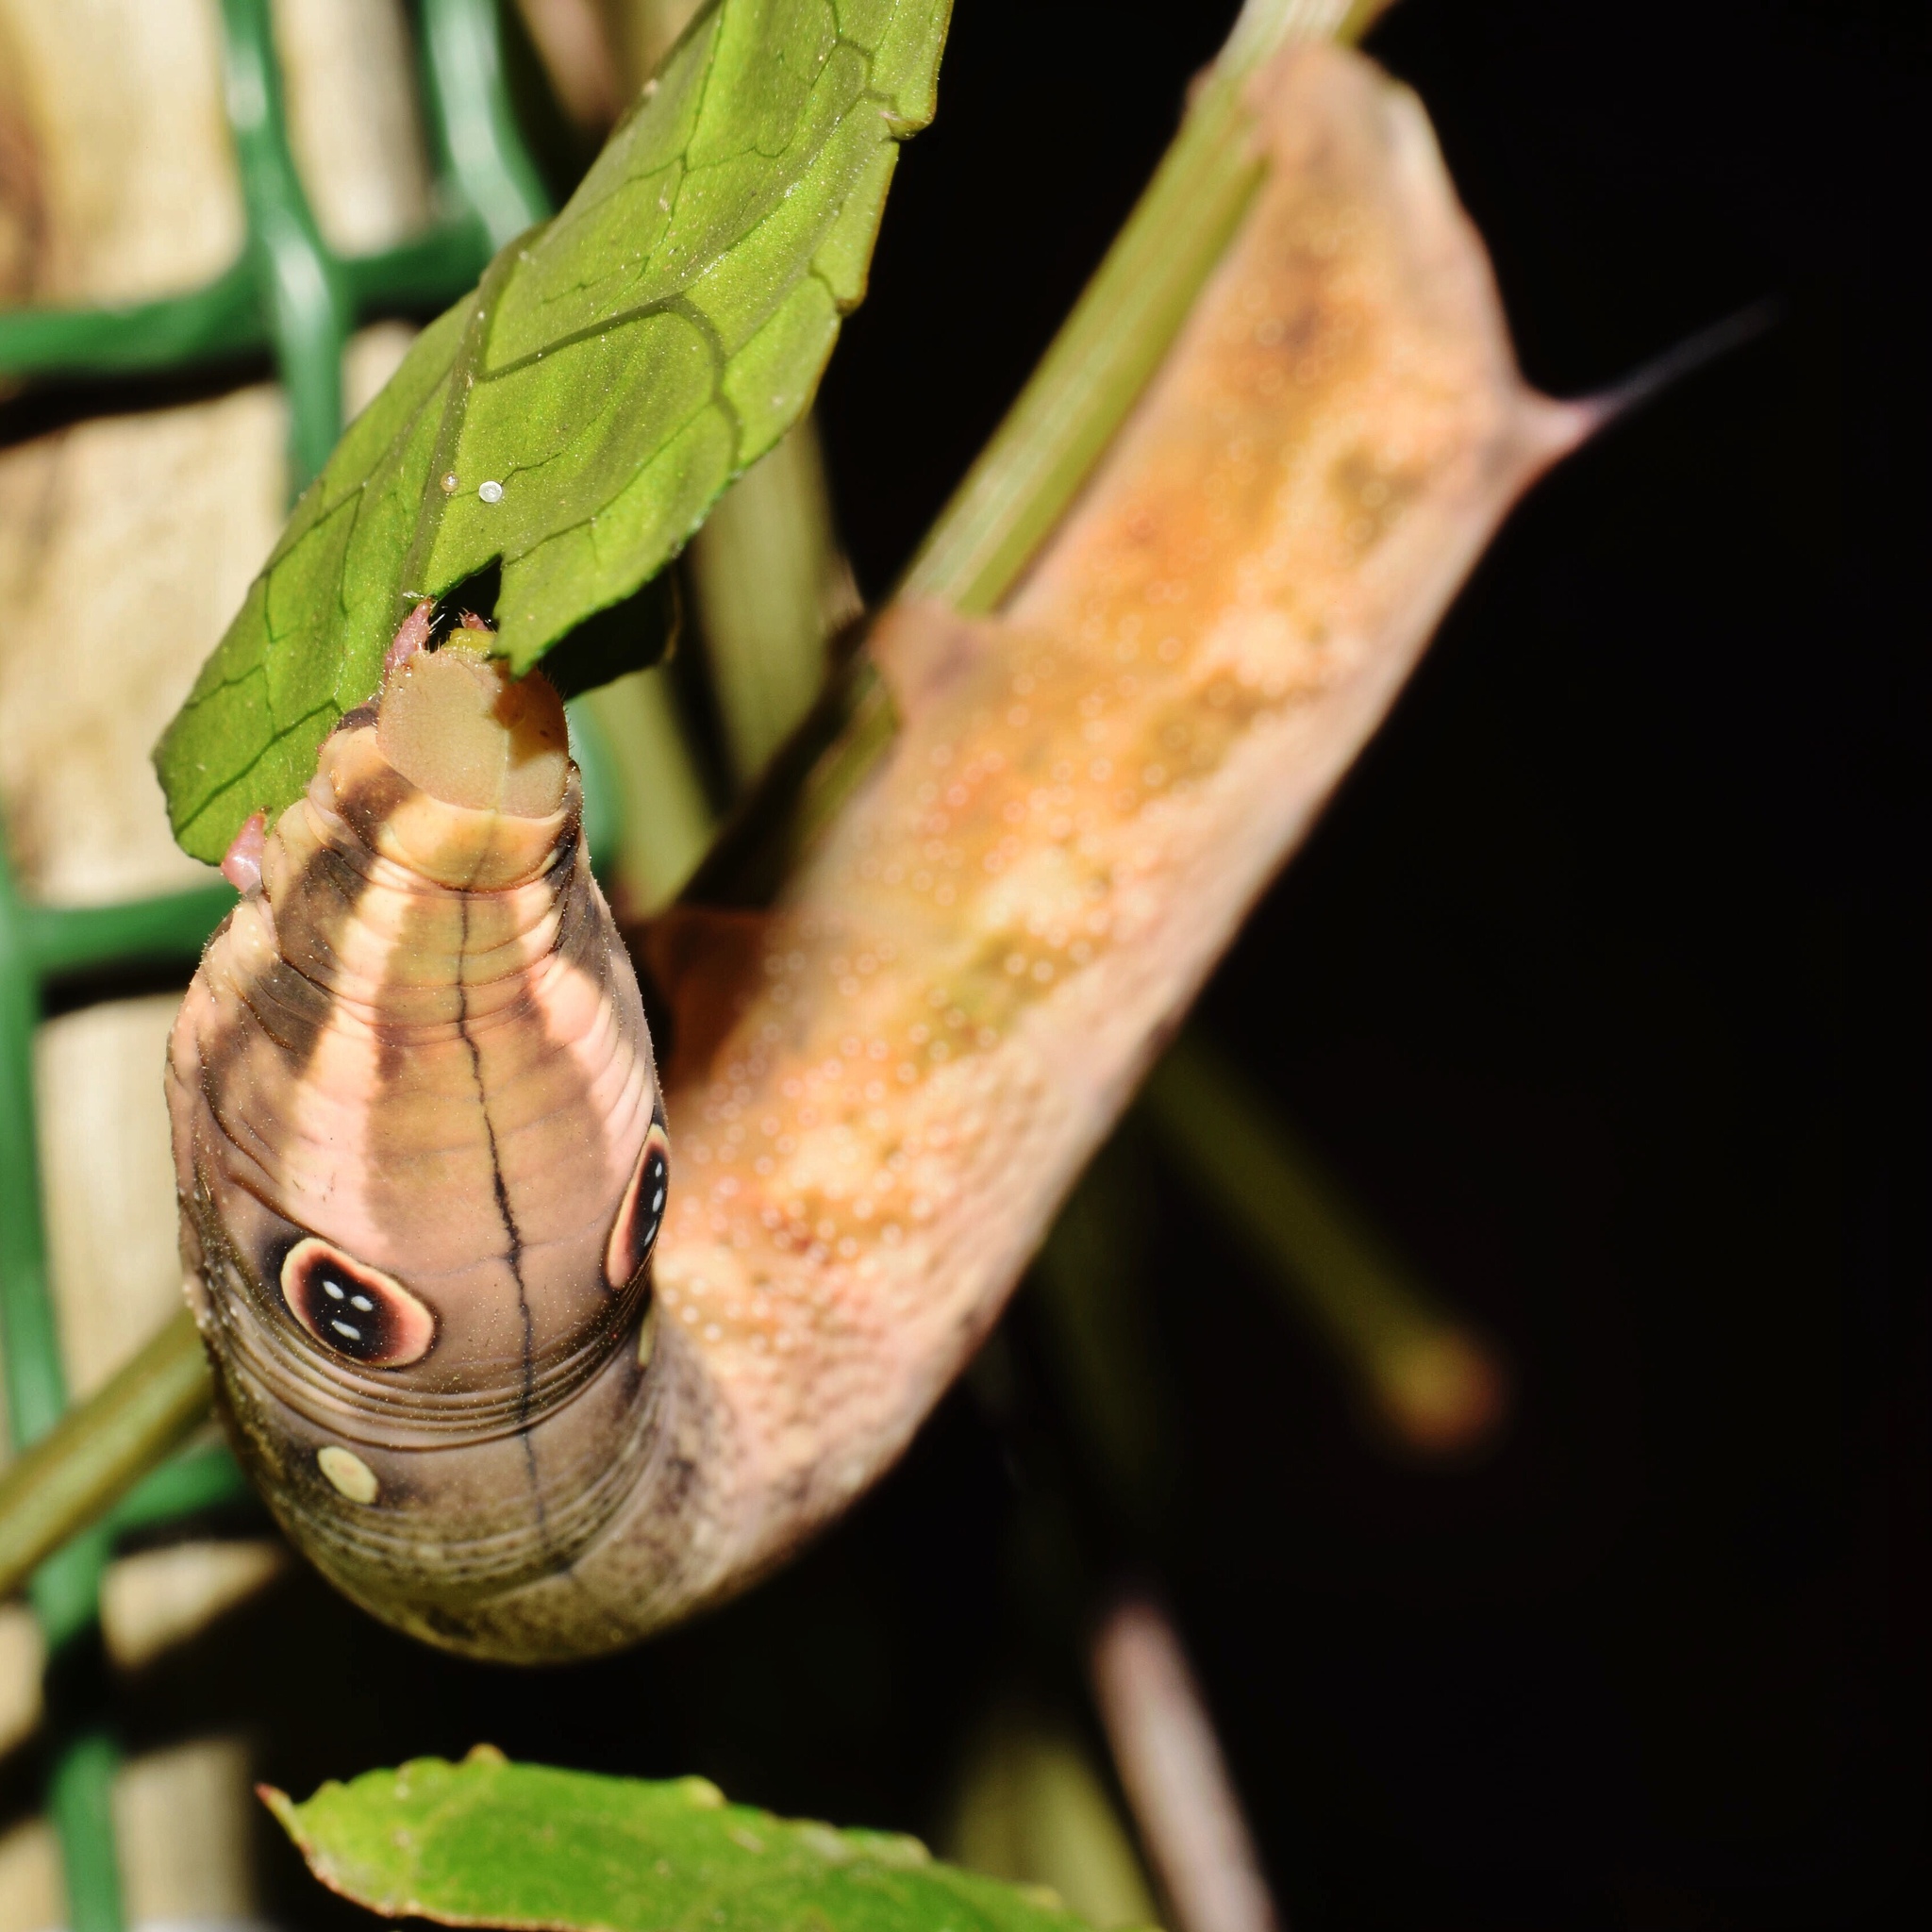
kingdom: Animalia
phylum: Arthropoda
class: Insecta
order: Lepidoptera
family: Sphingidae
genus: Hippotion
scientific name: Hippotion celerio
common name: Silver-striped hawk-moth
